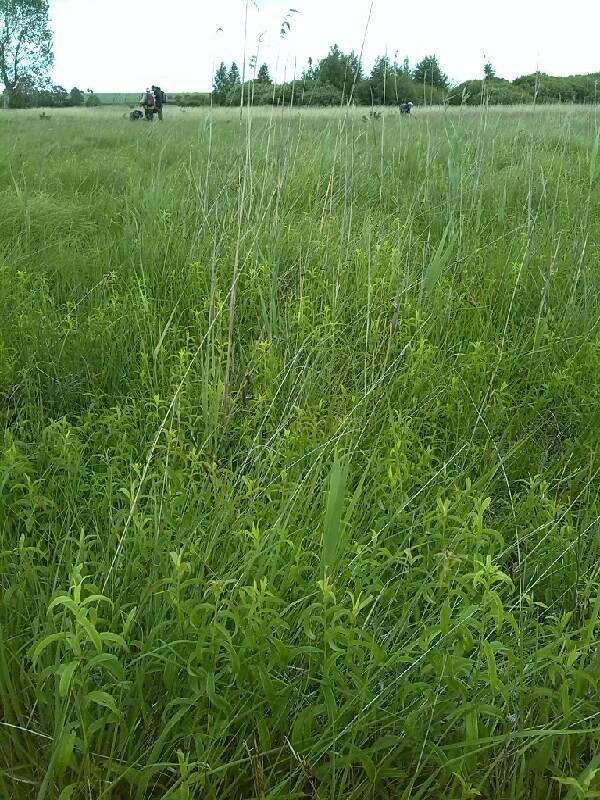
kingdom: Plantae
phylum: Tracheophyta
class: Magnoliopsida
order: Asterales
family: Asteraceae
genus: Pentanema
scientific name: Pentanema salicinum
